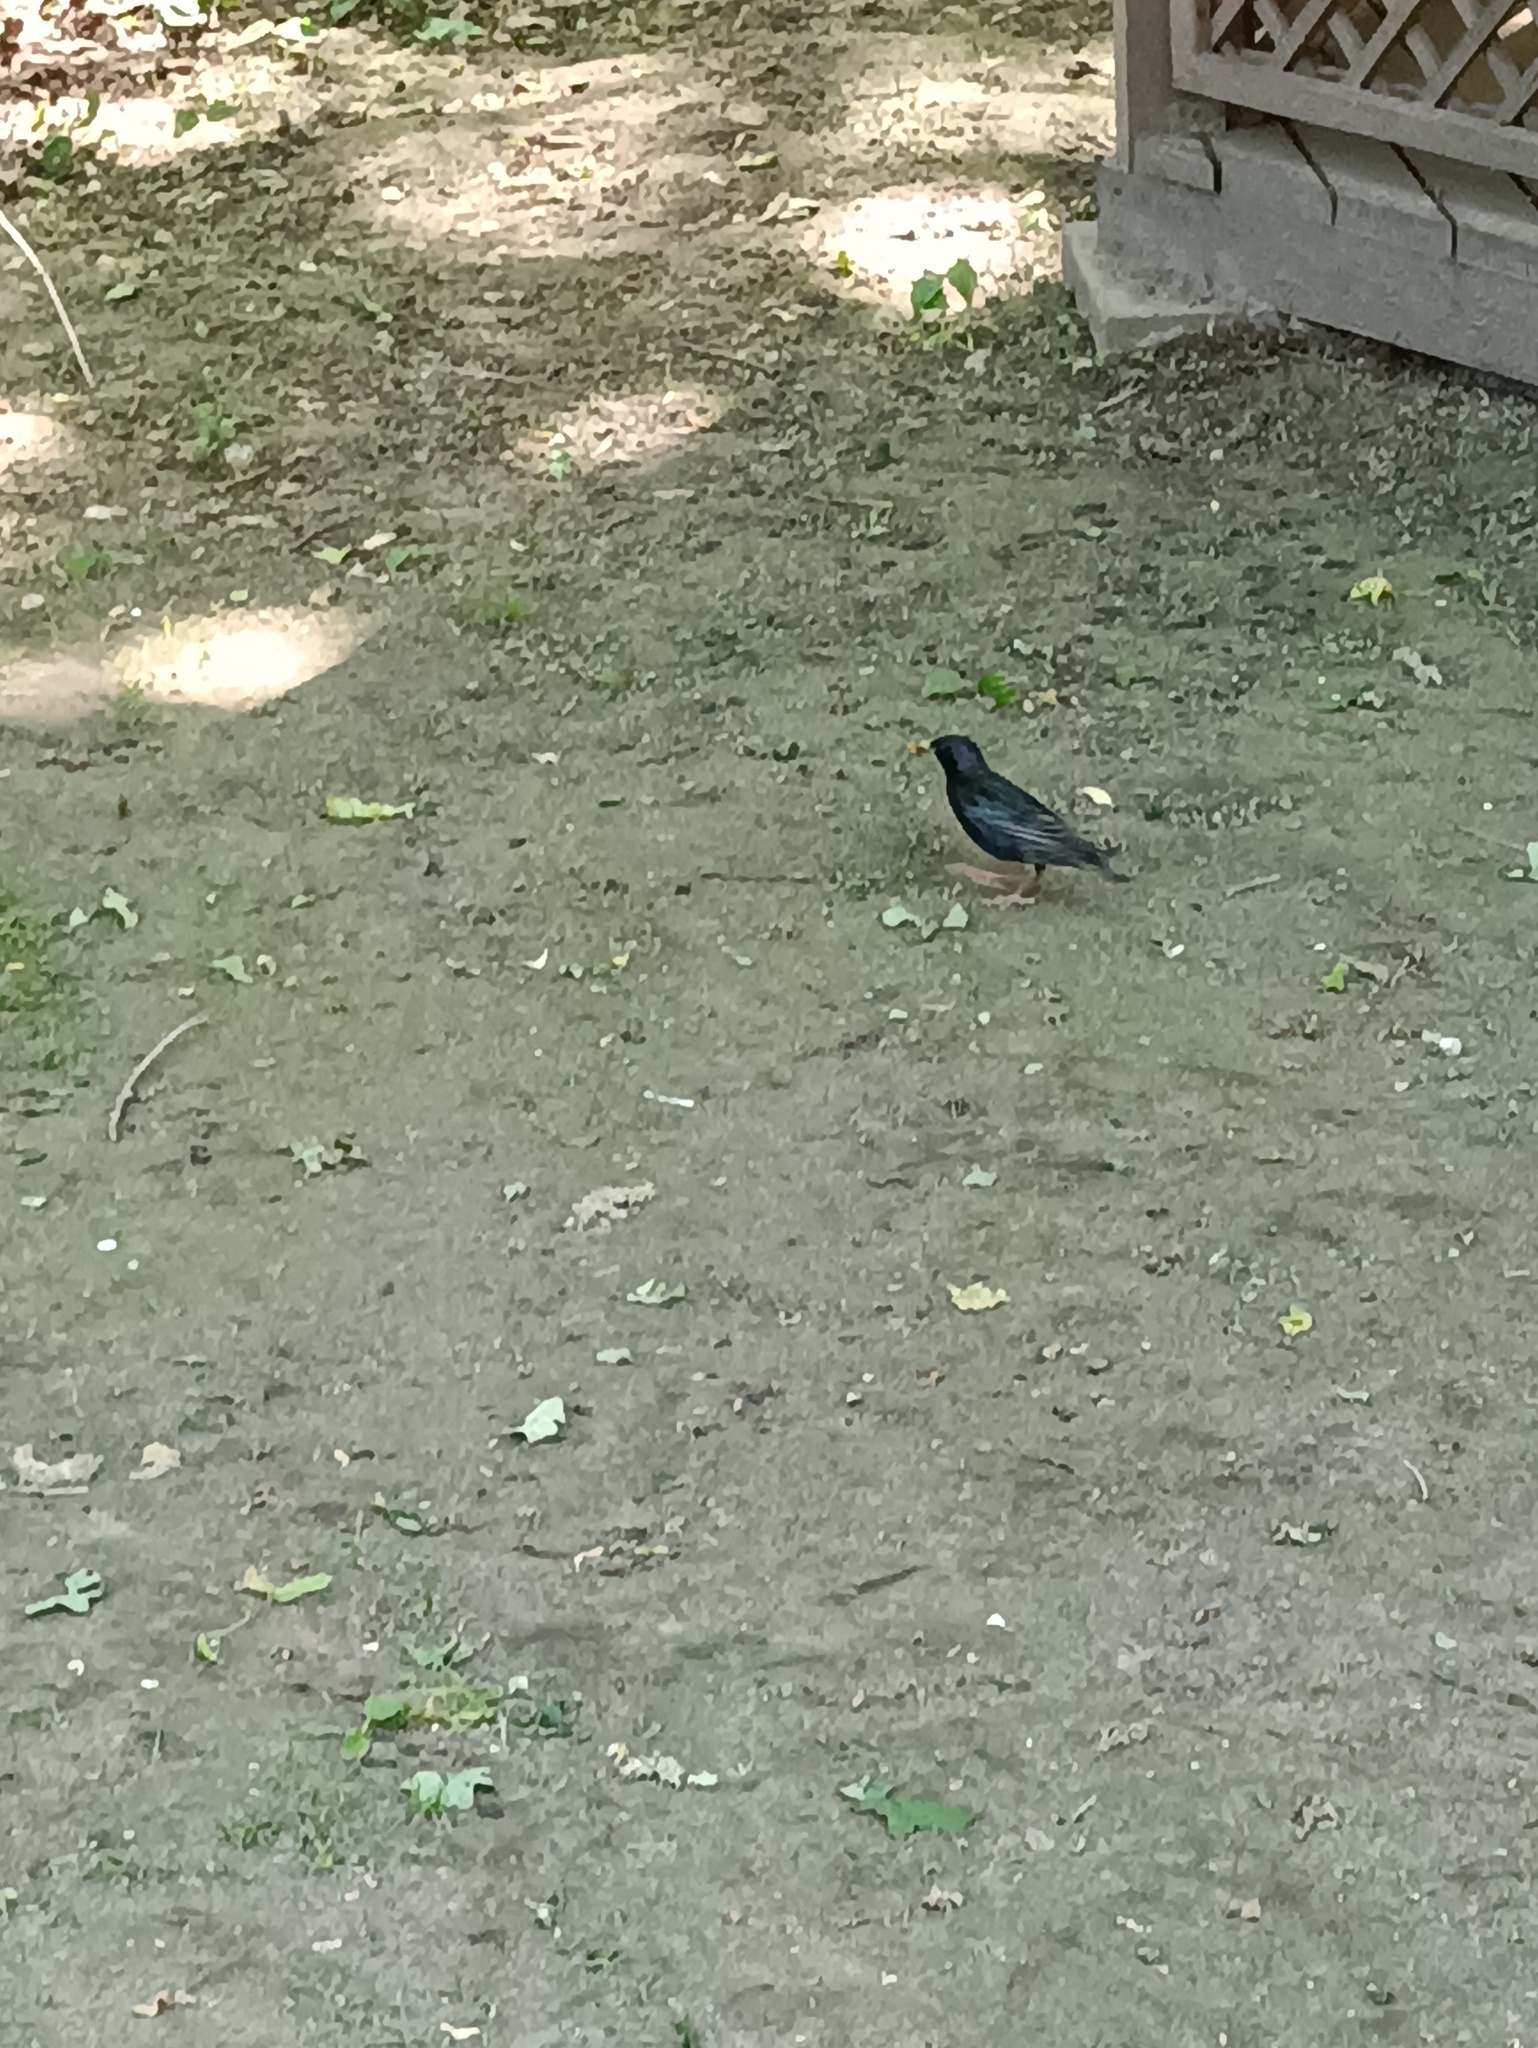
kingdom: Animalia
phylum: Chordata
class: Aves
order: Passeriformes
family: Sturnidae
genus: Sturnus
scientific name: Sturnus vulgaris
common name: Common starling
